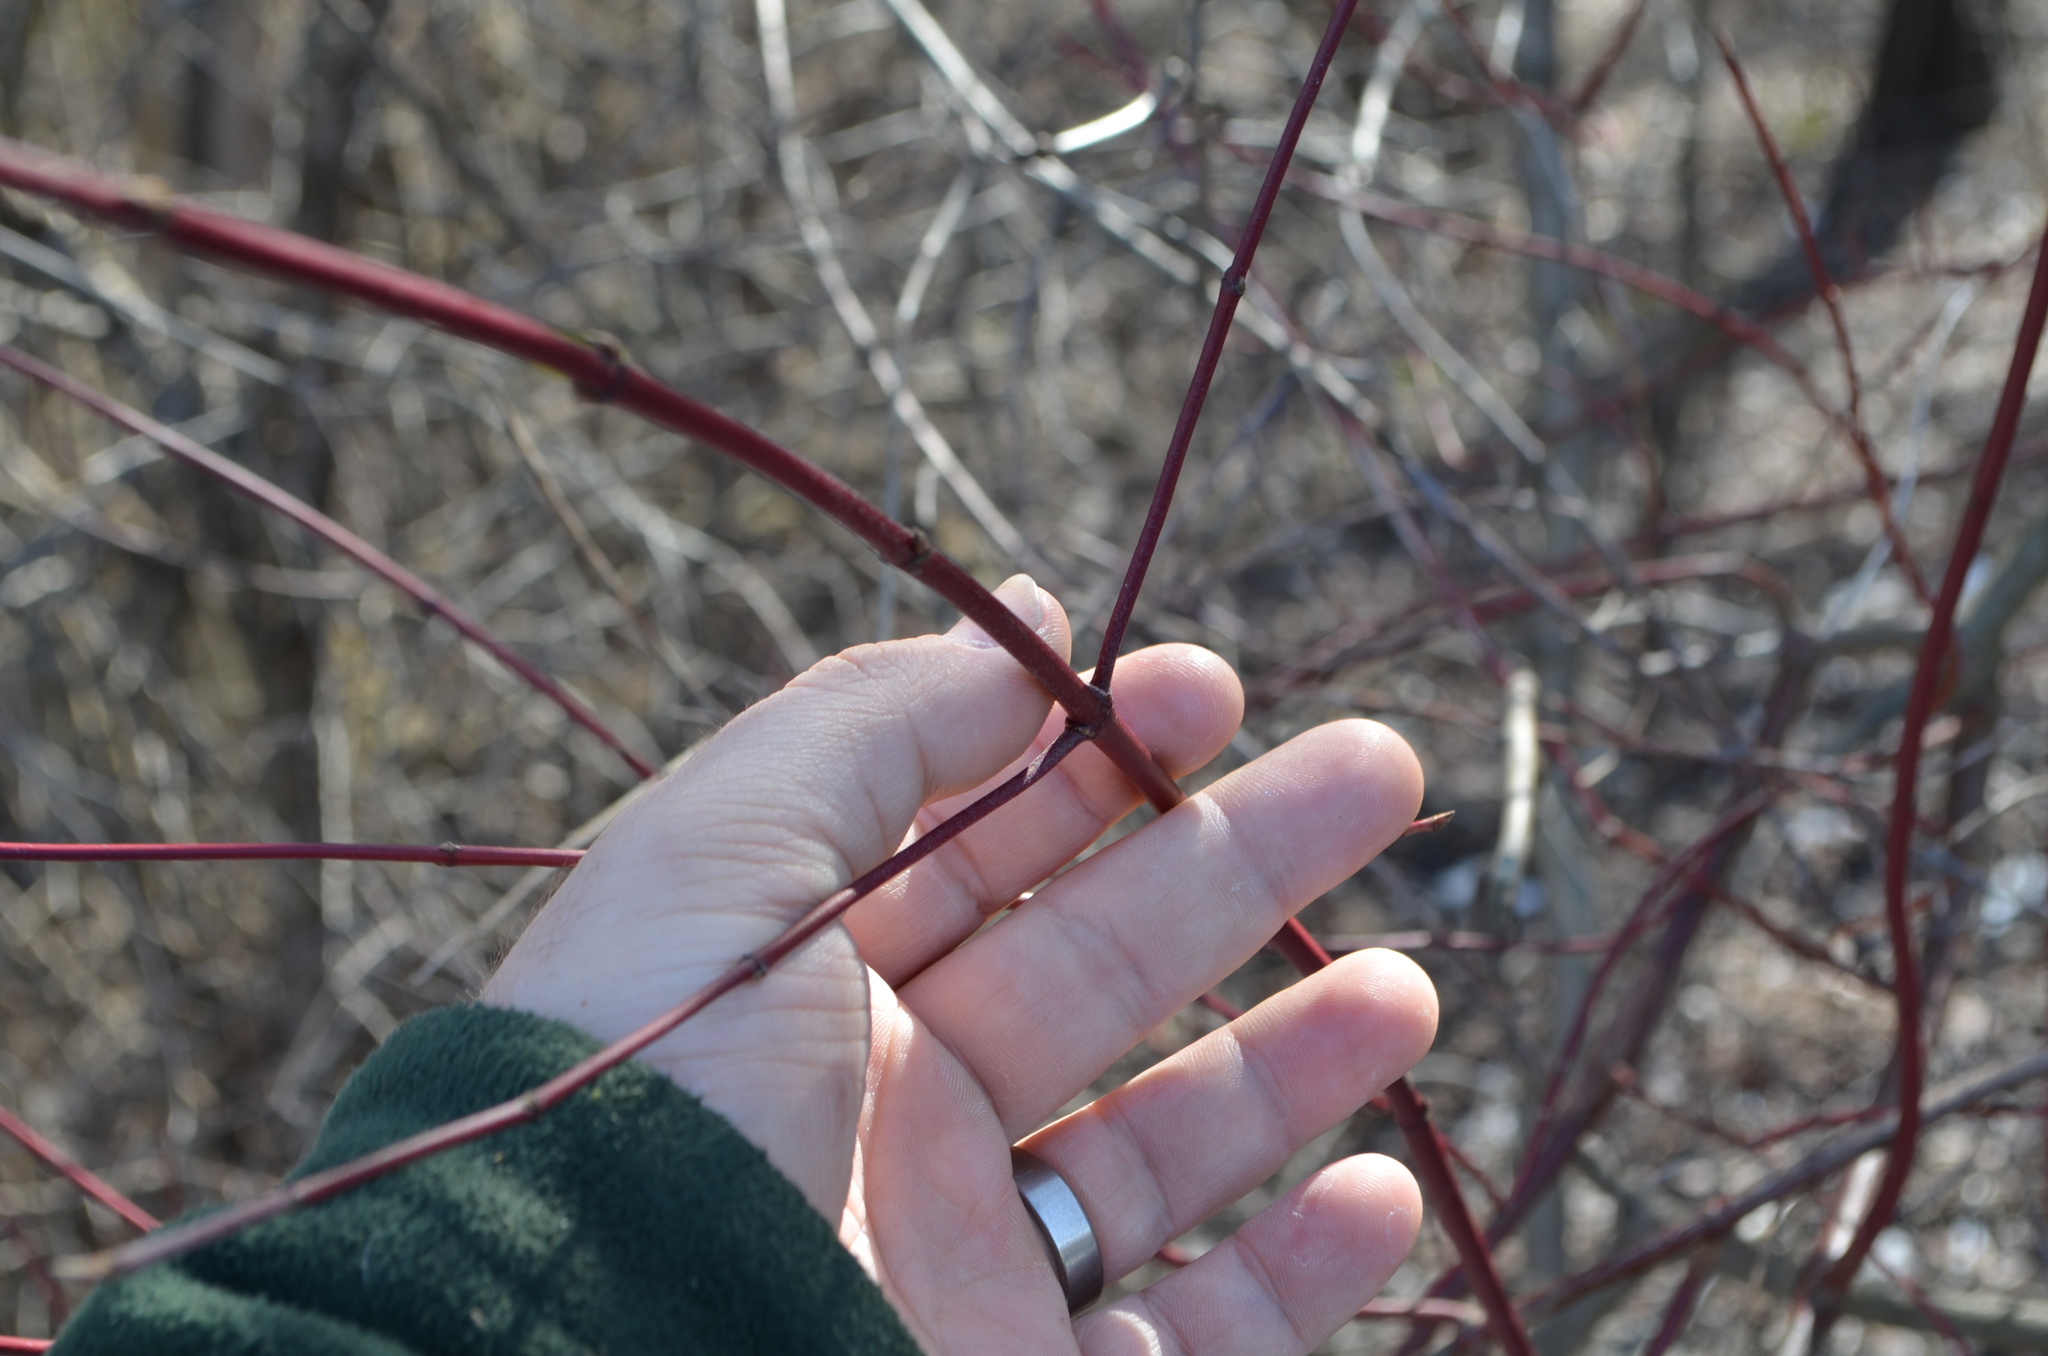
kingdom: Plantae
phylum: Tracheophyta
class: Magnoliopsida
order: Cornales
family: Cornaceae
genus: Cornus
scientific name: Cornus sericea
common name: Red-osier dogwood
